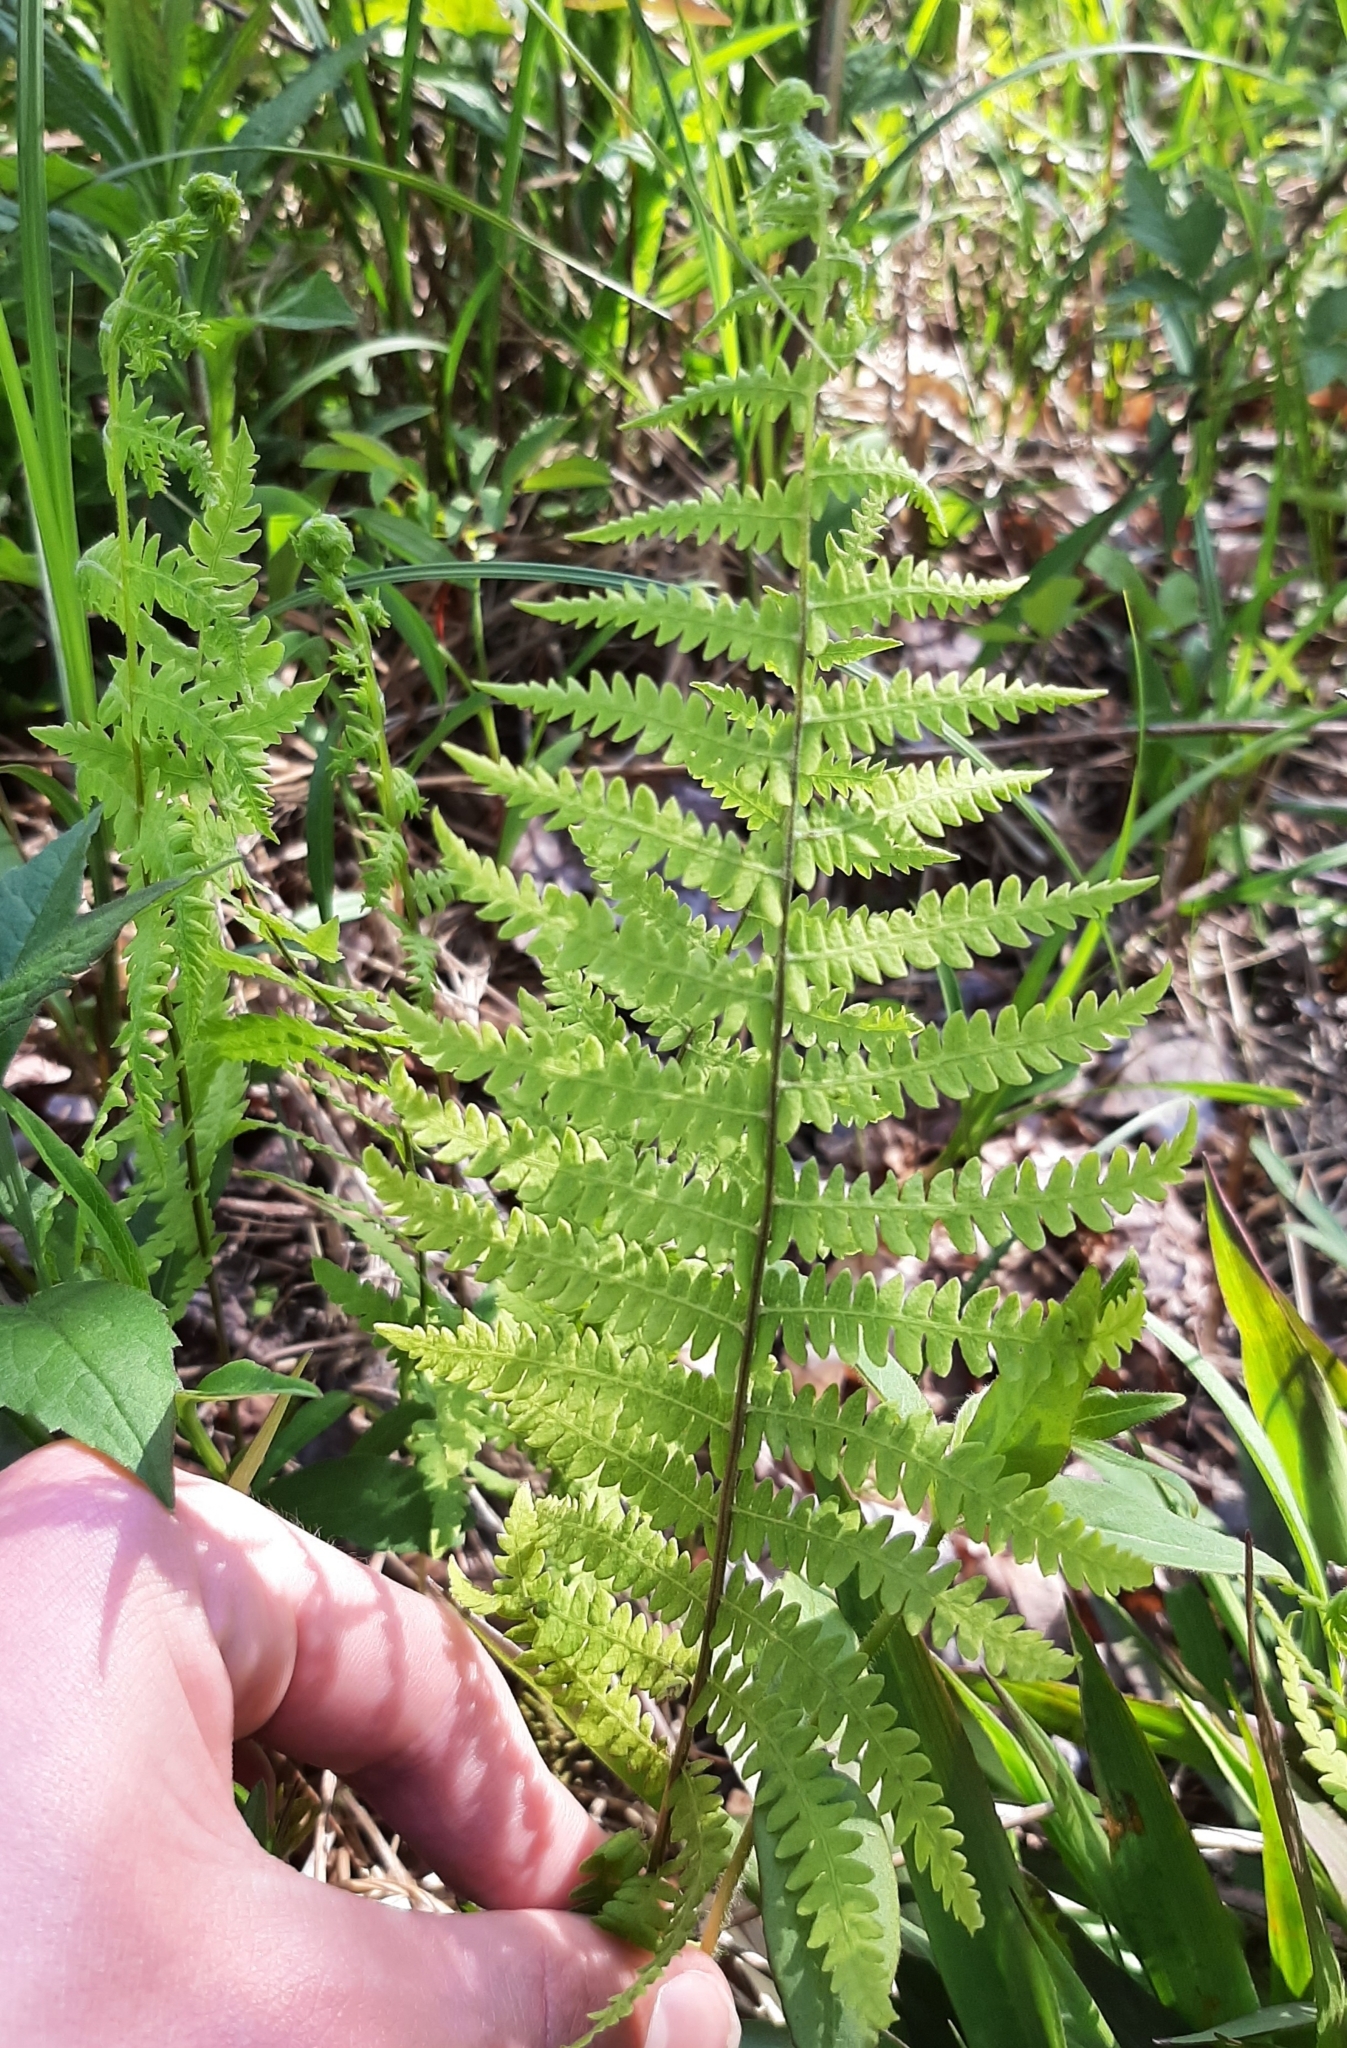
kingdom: Plantae
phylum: Tracheophyta
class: Polypodiopsida
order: Polypodiales
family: Thelypteridaceae
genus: Thelypteris
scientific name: Thelypteris palustris
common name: Marsh fern
